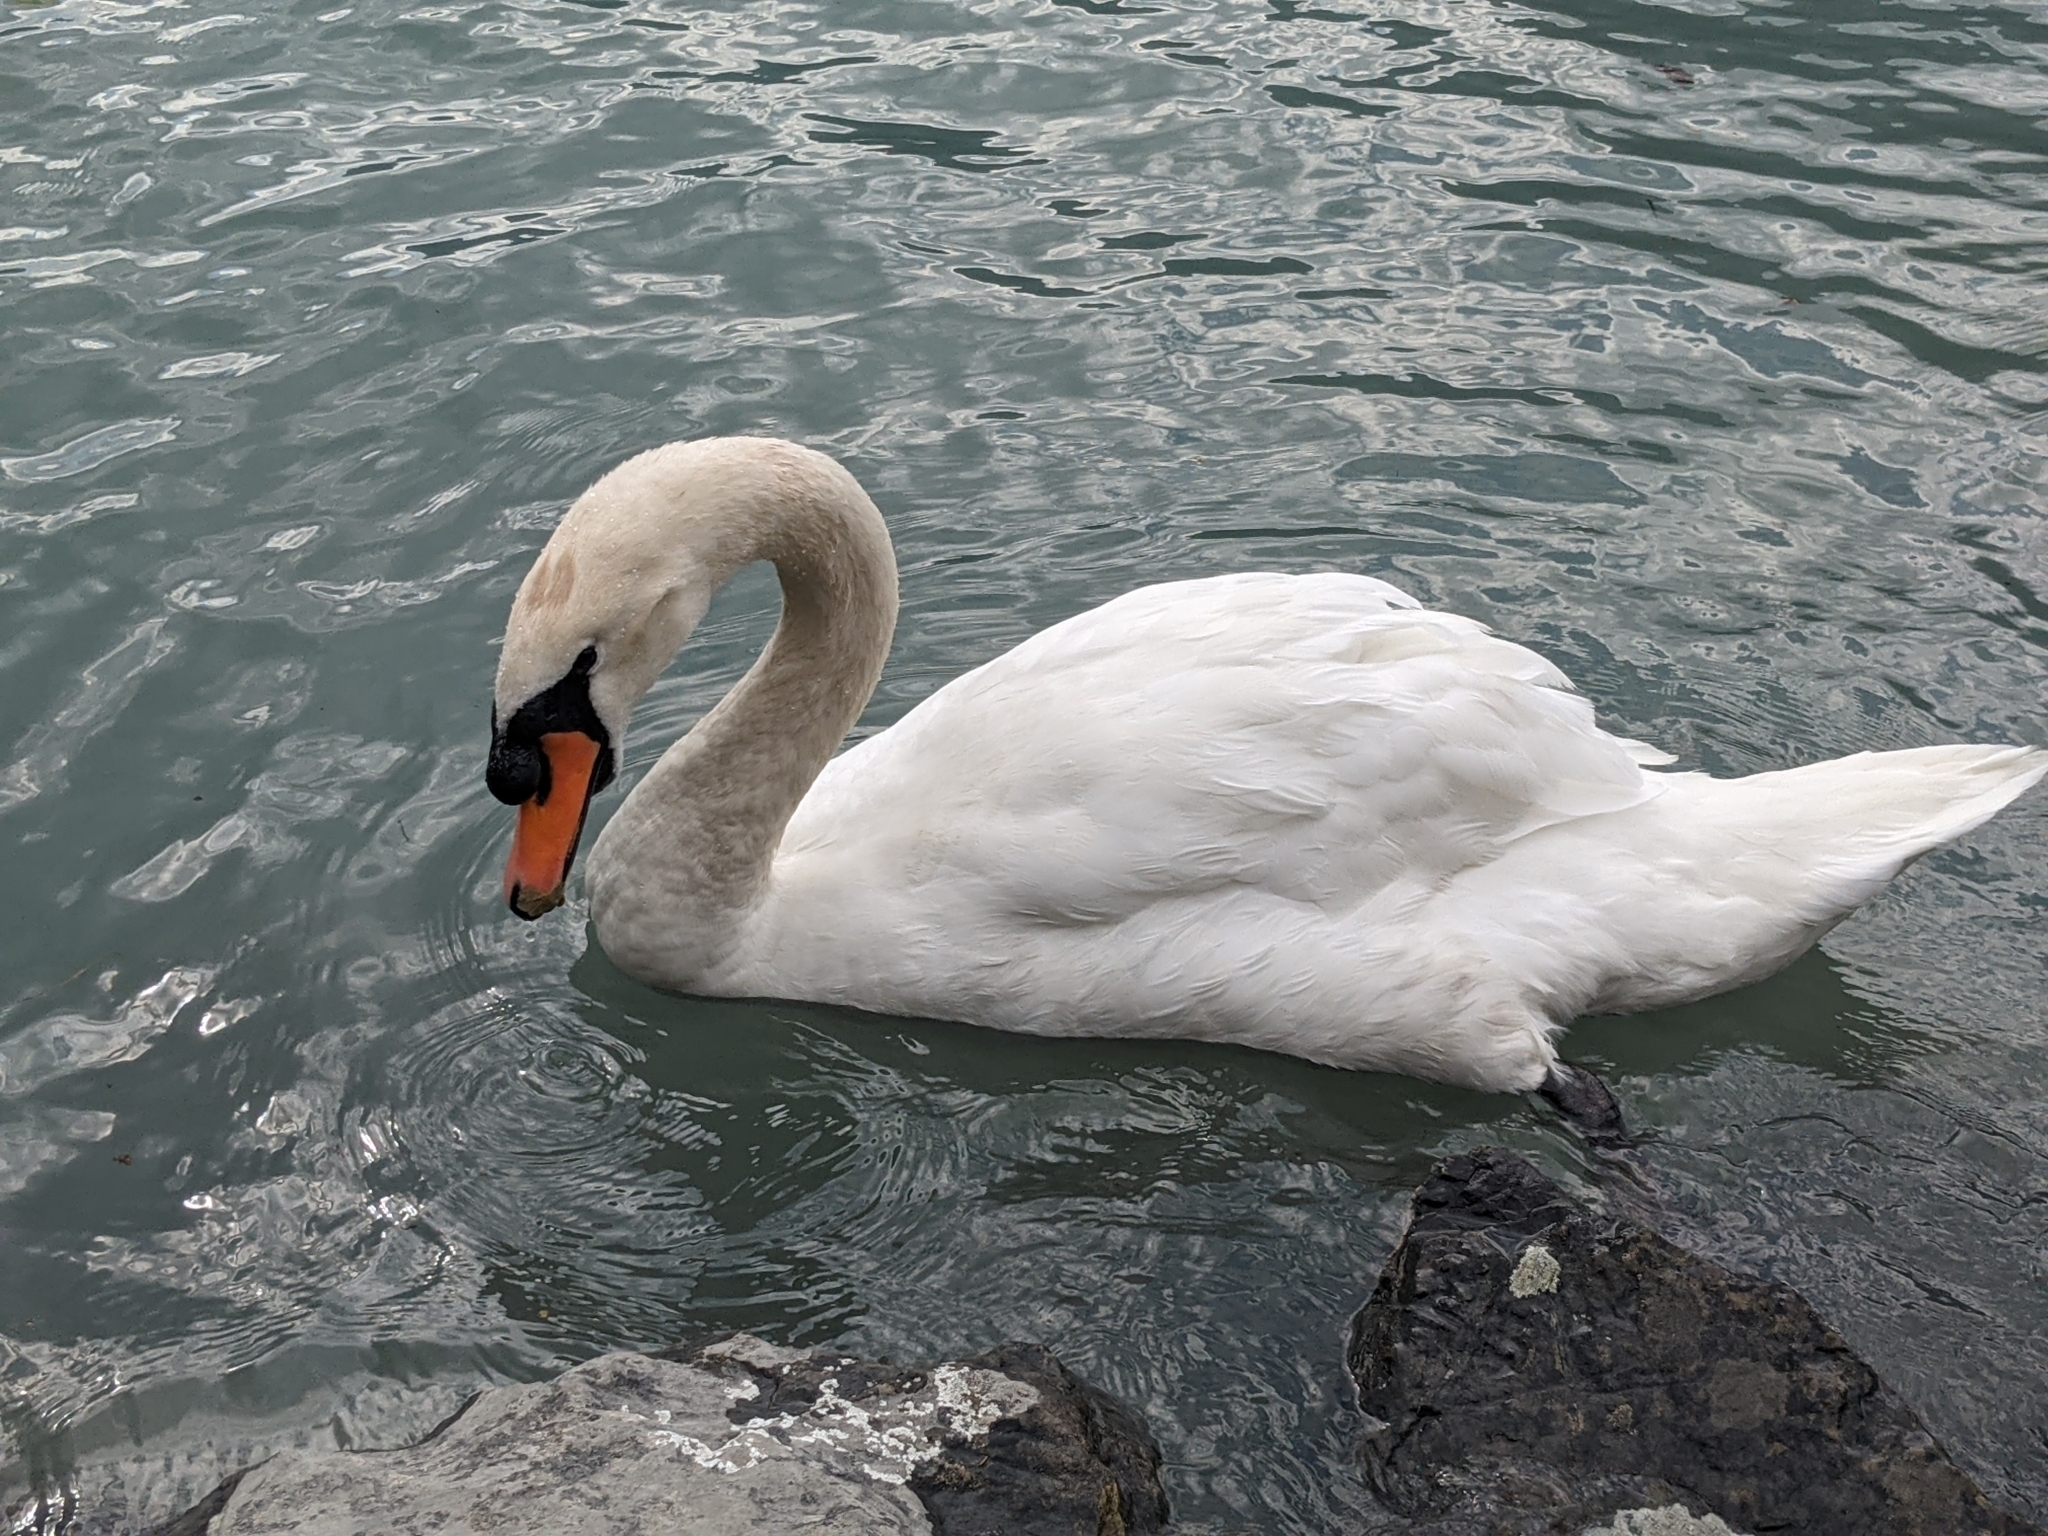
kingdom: Animalia
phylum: Chordata
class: Aves
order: Anseriformes
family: Anatidae
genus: Cygnus
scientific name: Cygnus olor
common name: Mute swan
